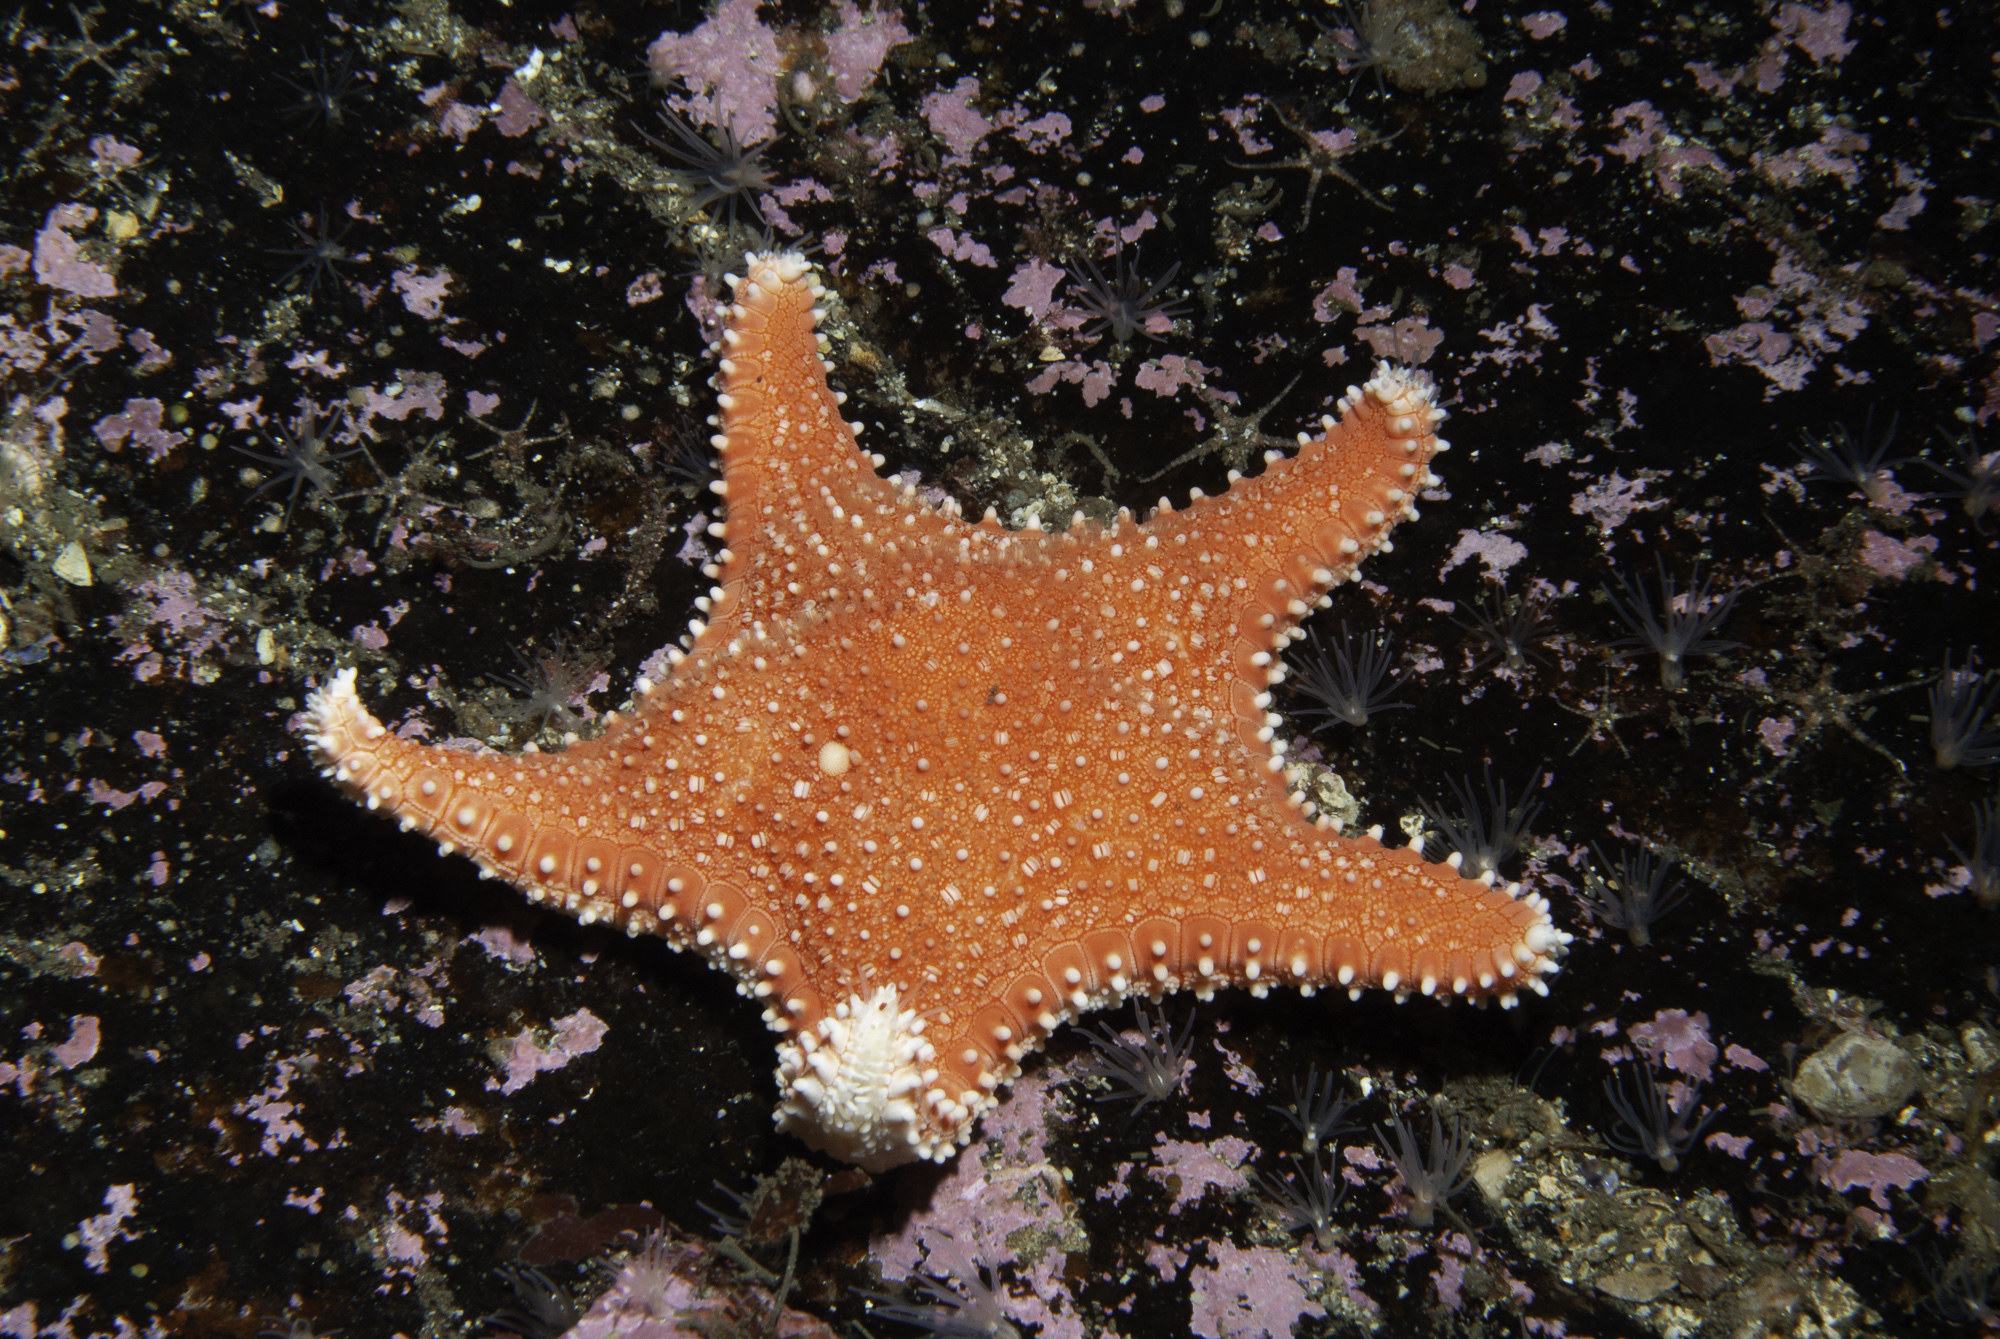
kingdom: Animalia
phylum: Echinodermata
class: Asteroidea
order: Valvatida
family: Goniasteridae
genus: Hippasteria
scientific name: Hippasteria phrygiana
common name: Arctic cushion star
